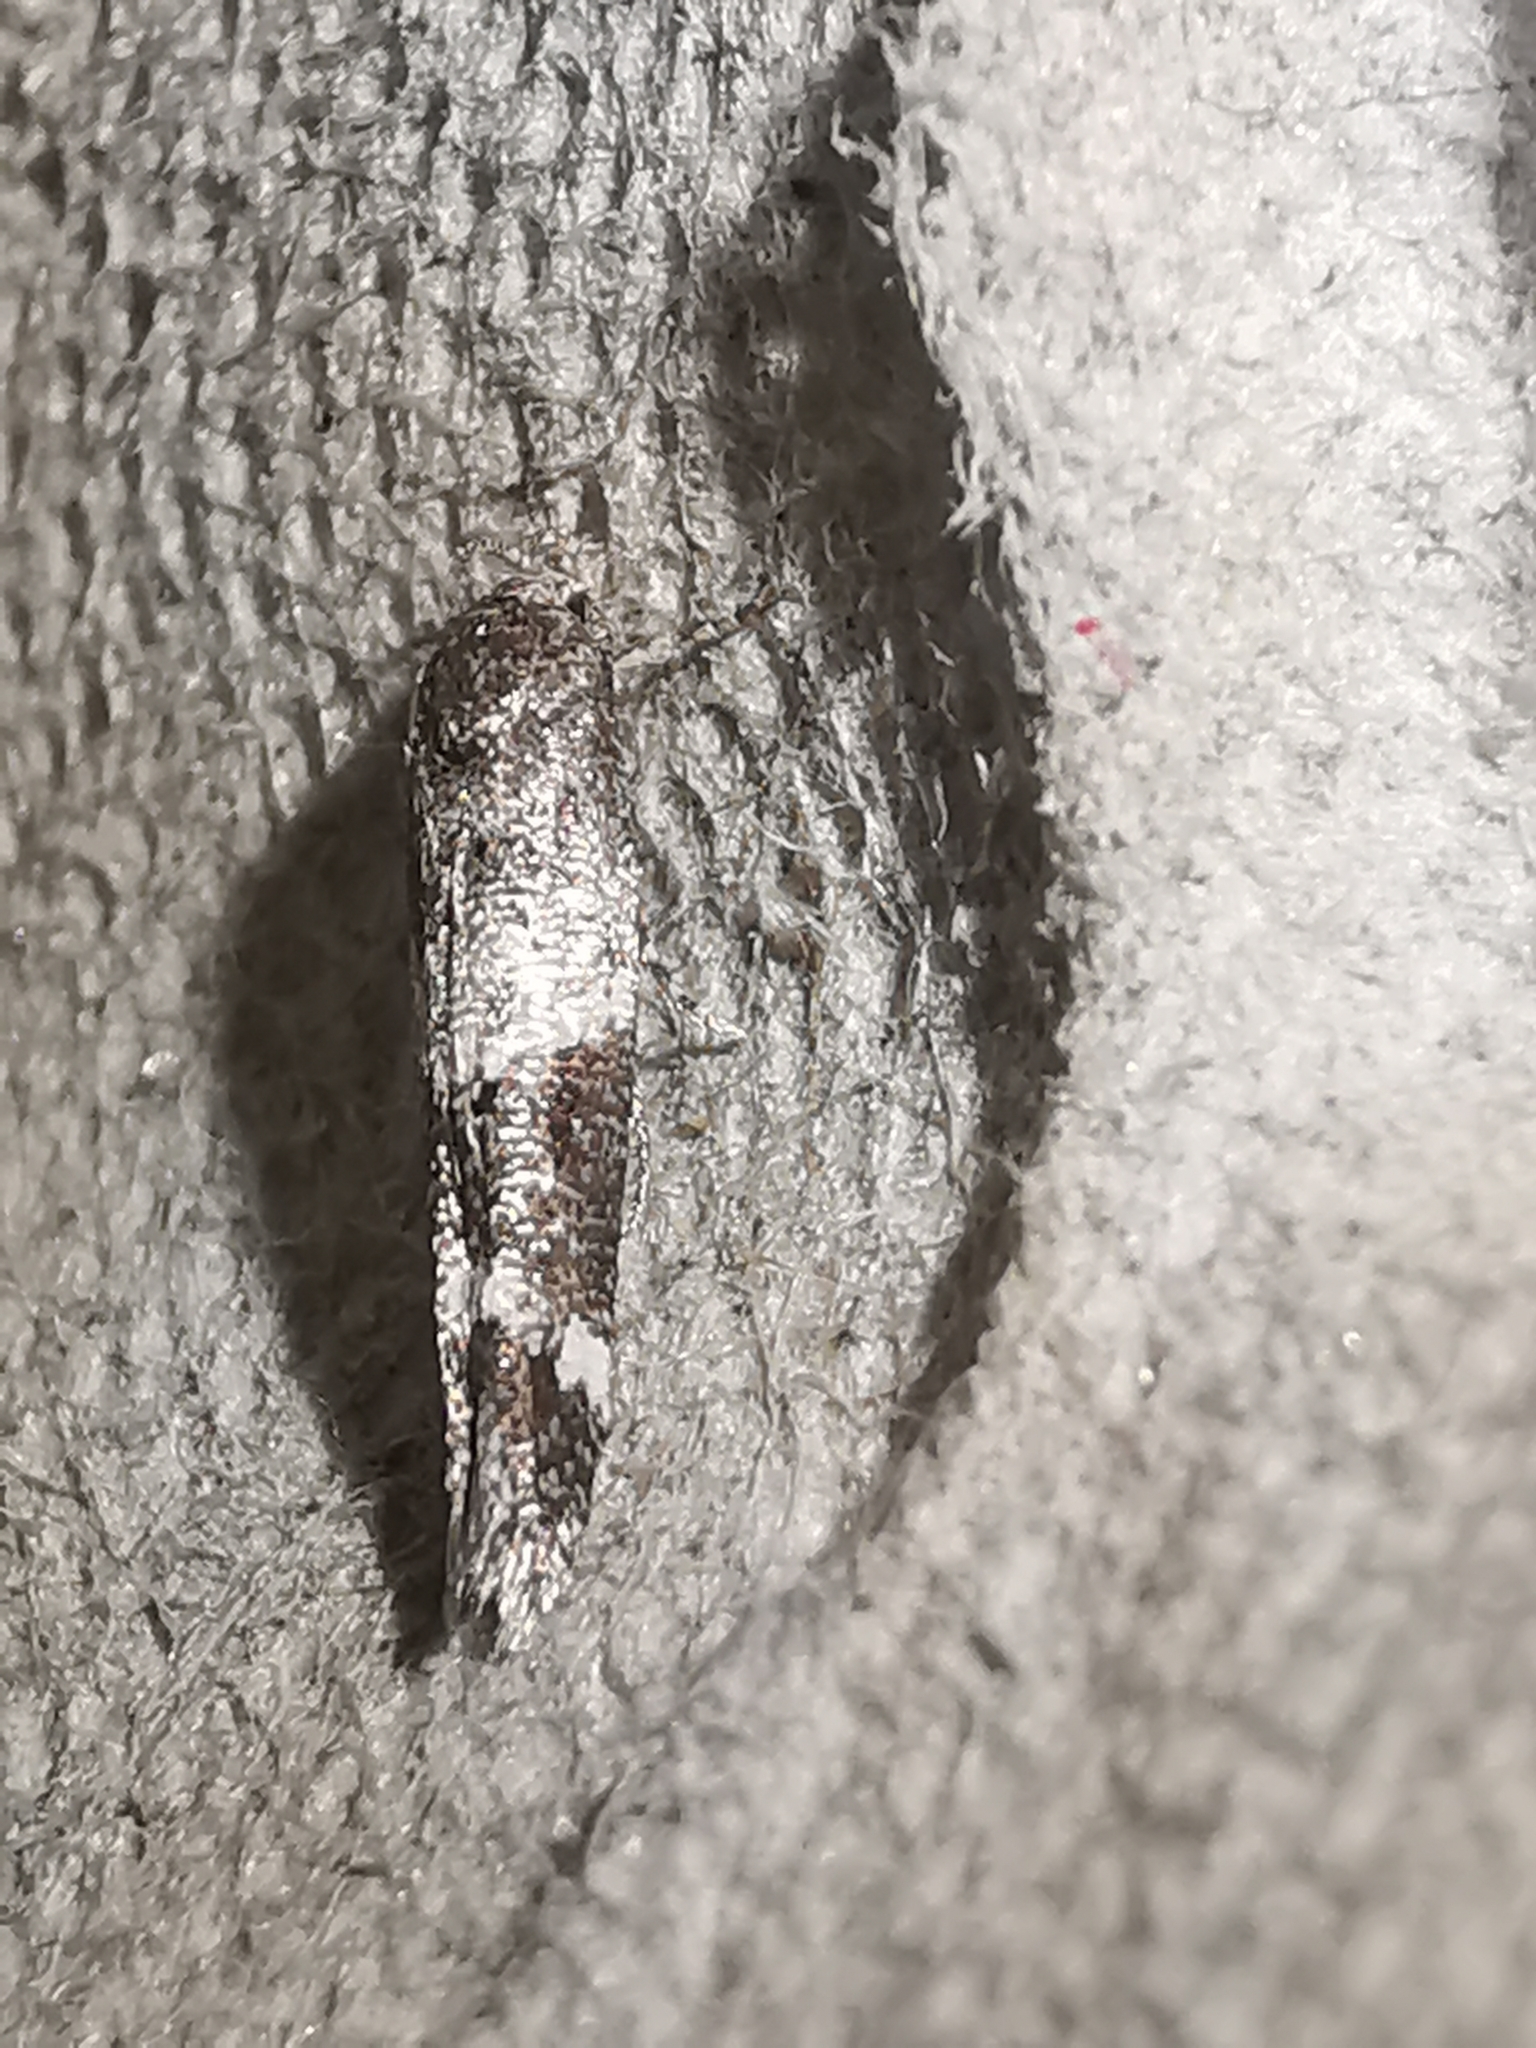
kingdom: Animalia
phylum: Arthropoda
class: Insecta
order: Lepidoptera
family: Momphidae
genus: Mompha
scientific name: Mompha subbistrigella
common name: Garden cosmet
